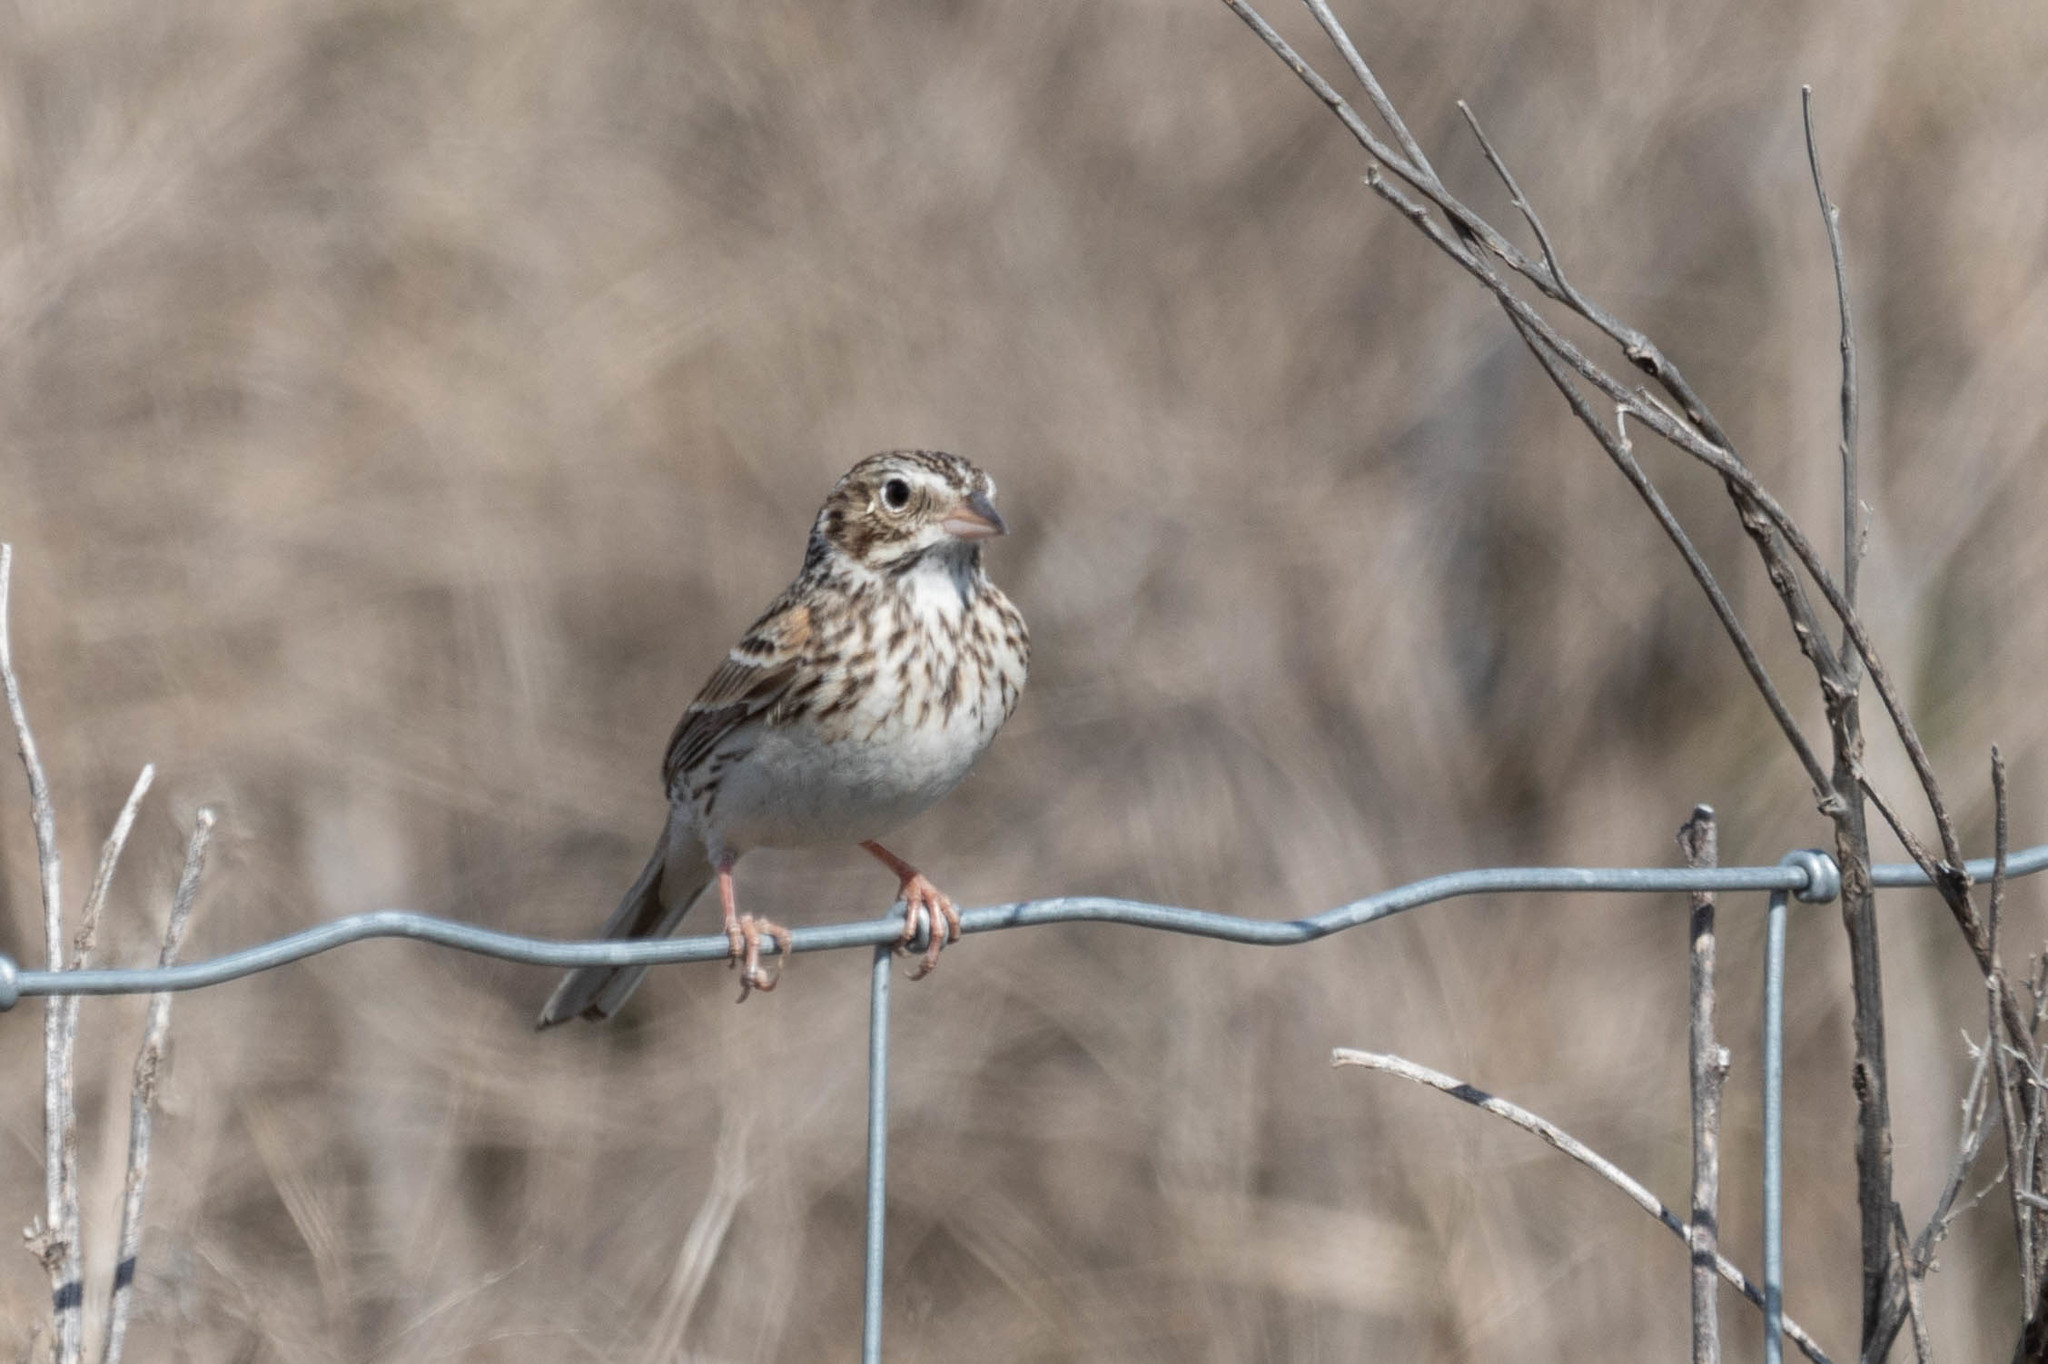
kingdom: Animalia
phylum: Chordata
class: Aves
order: Passeriformes
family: Passerellidae
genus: Pooecetes
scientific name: Pooecetes gramineus
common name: Vesper sparrow
